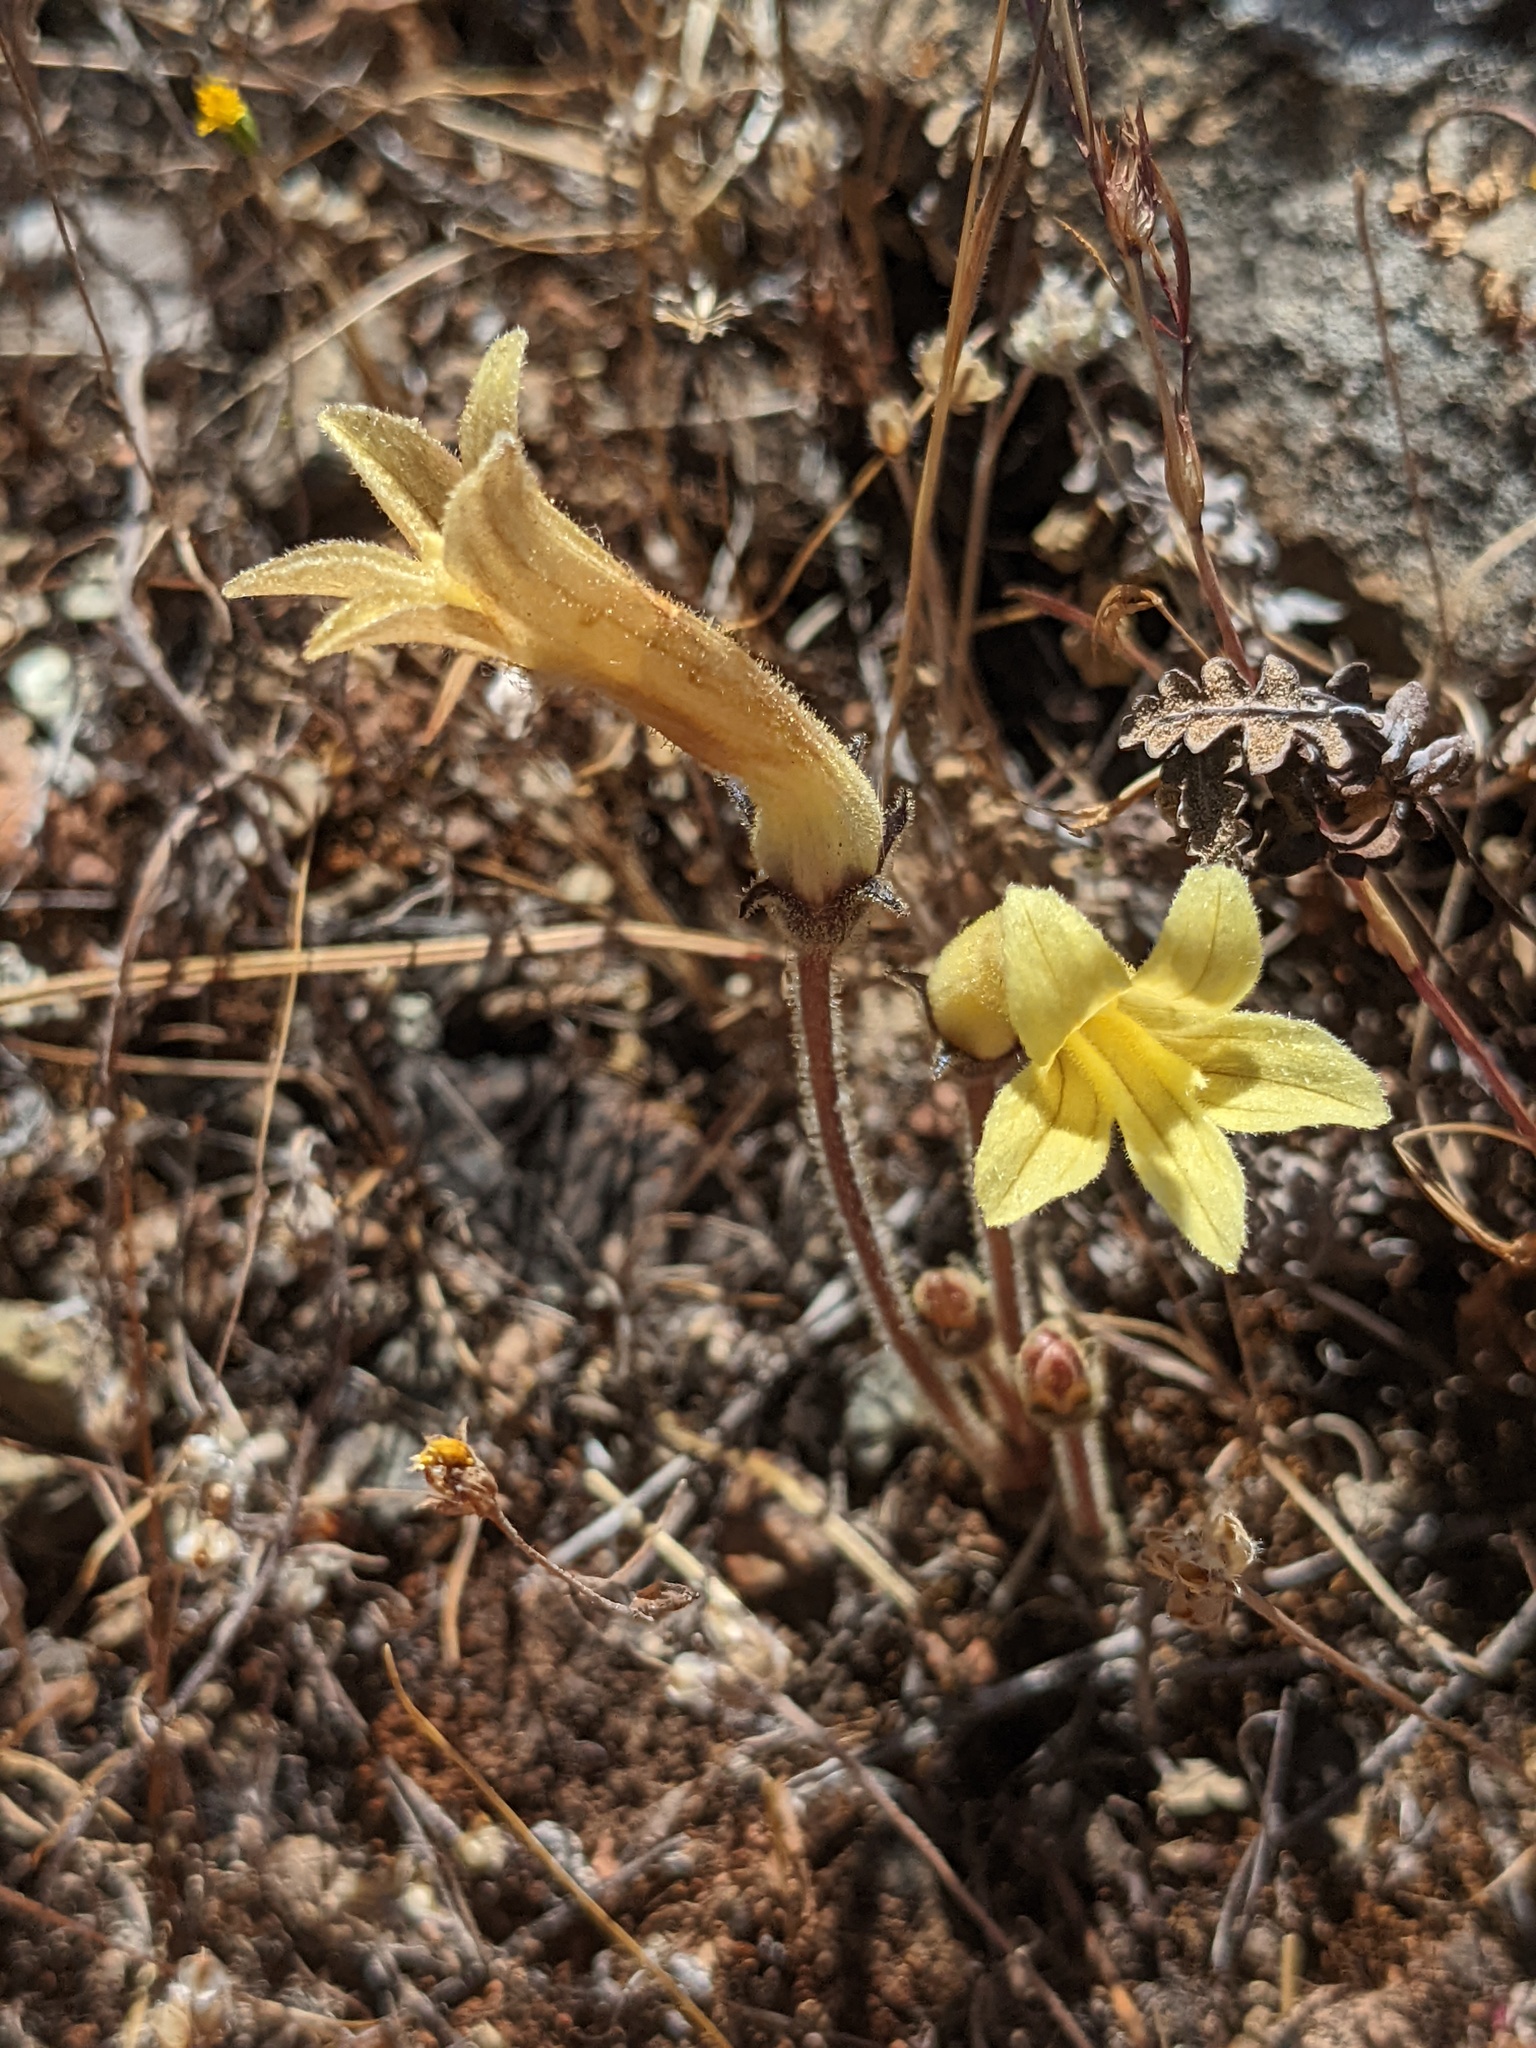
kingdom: Plantae
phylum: Tracheophyta
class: Magnoliopsida
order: Lamiales
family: Orobanchaceae
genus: Aphyllon
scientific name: Aphyllon franciscanum
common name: San francisco broomrape
